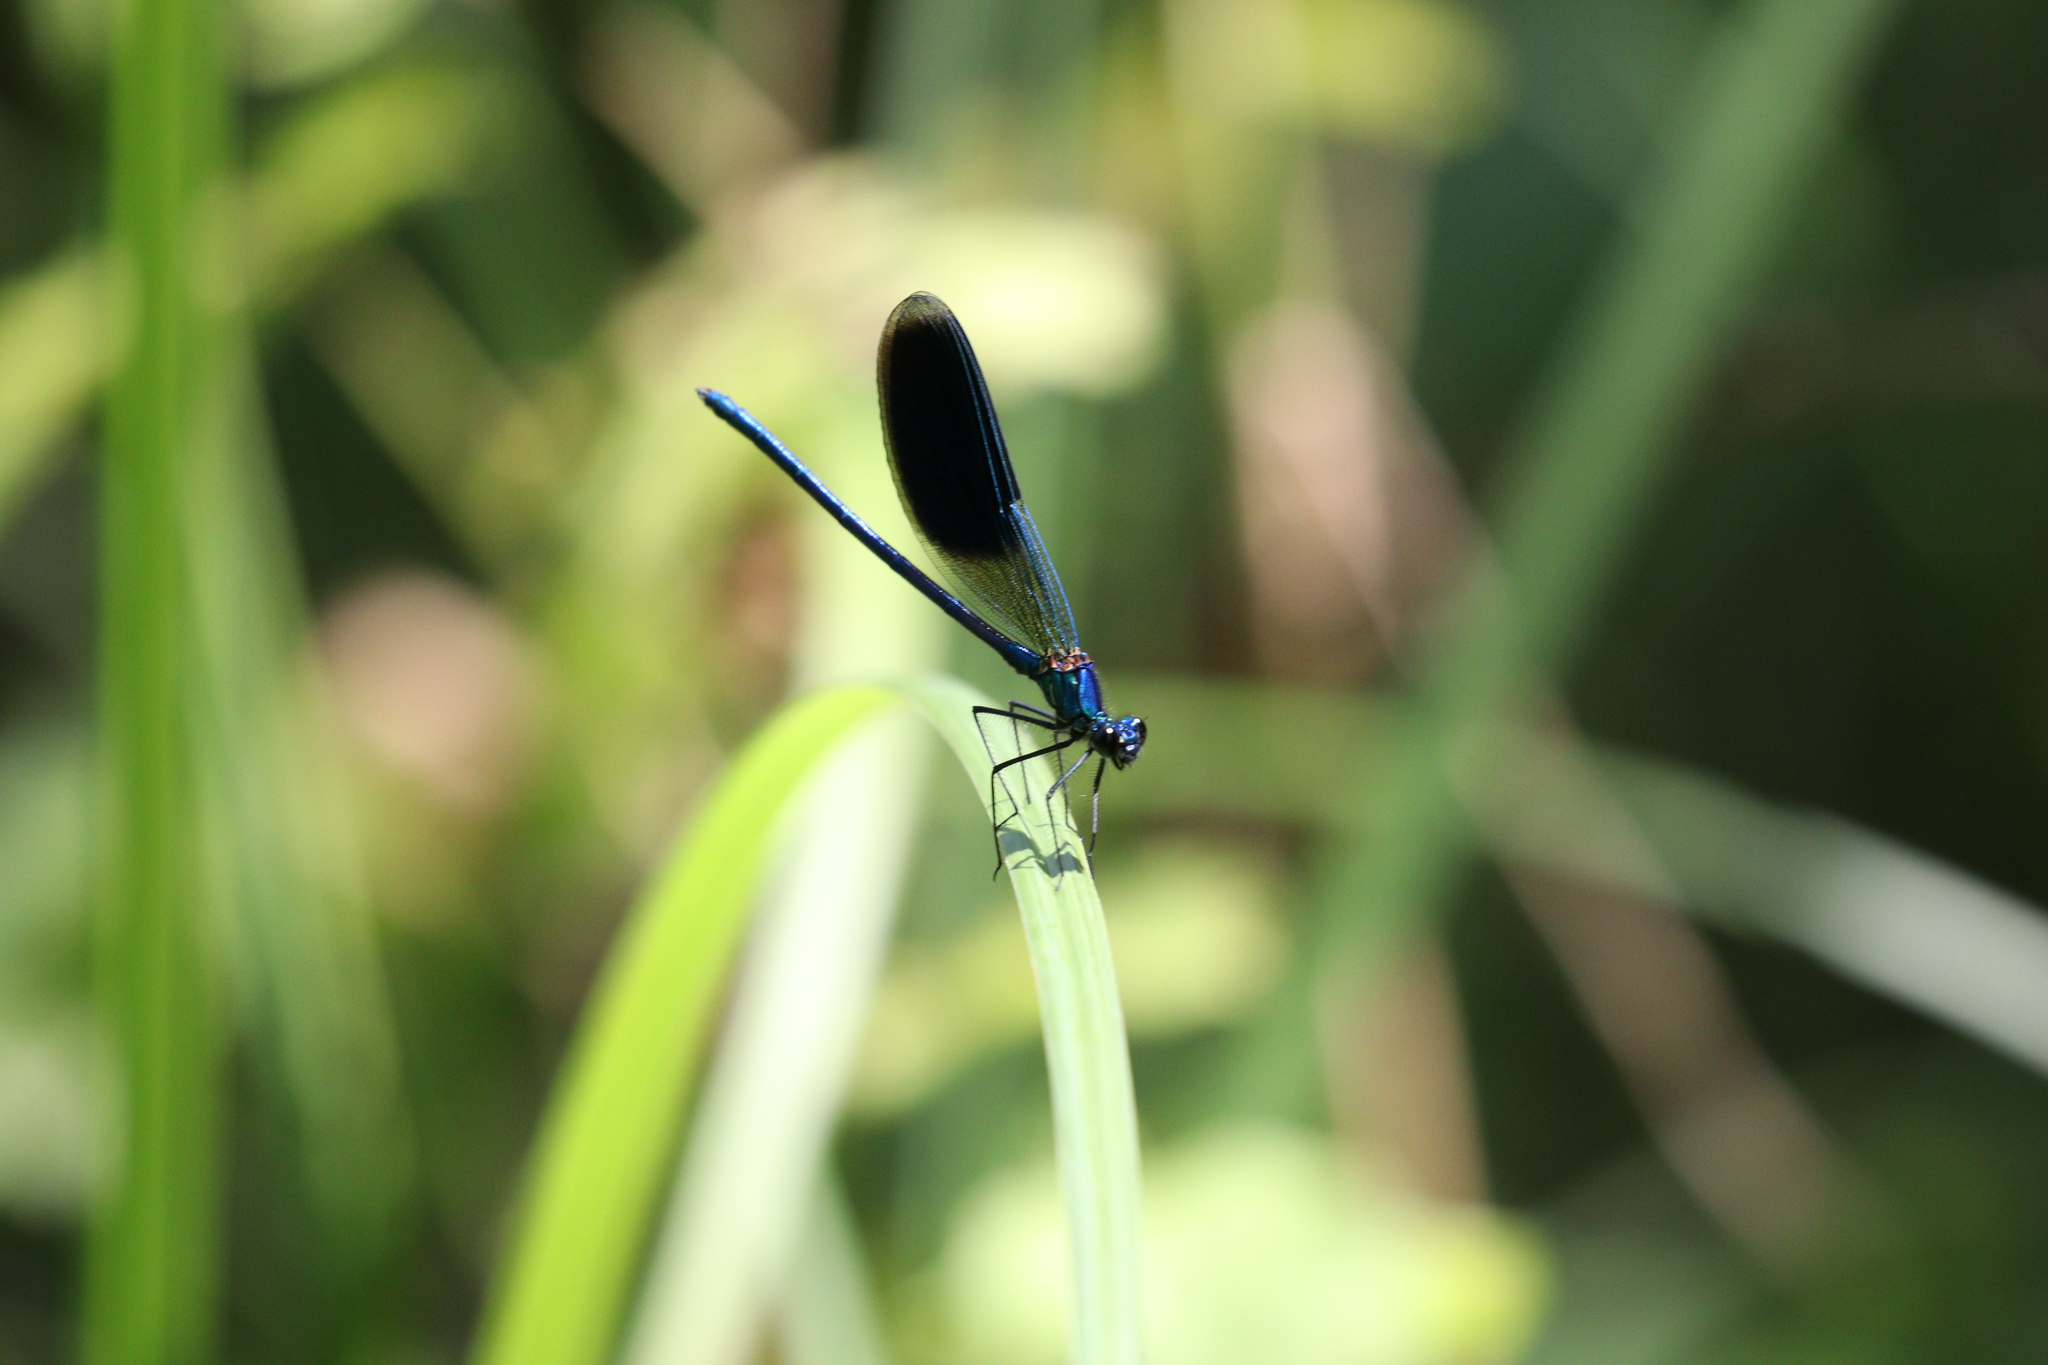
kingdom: Animalia
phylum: Arthropoda
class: Insecta
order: Odonata
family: Calopterygidae
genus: Calopteryx
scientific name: Calopteryx splendens
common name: Banded demoiselle
